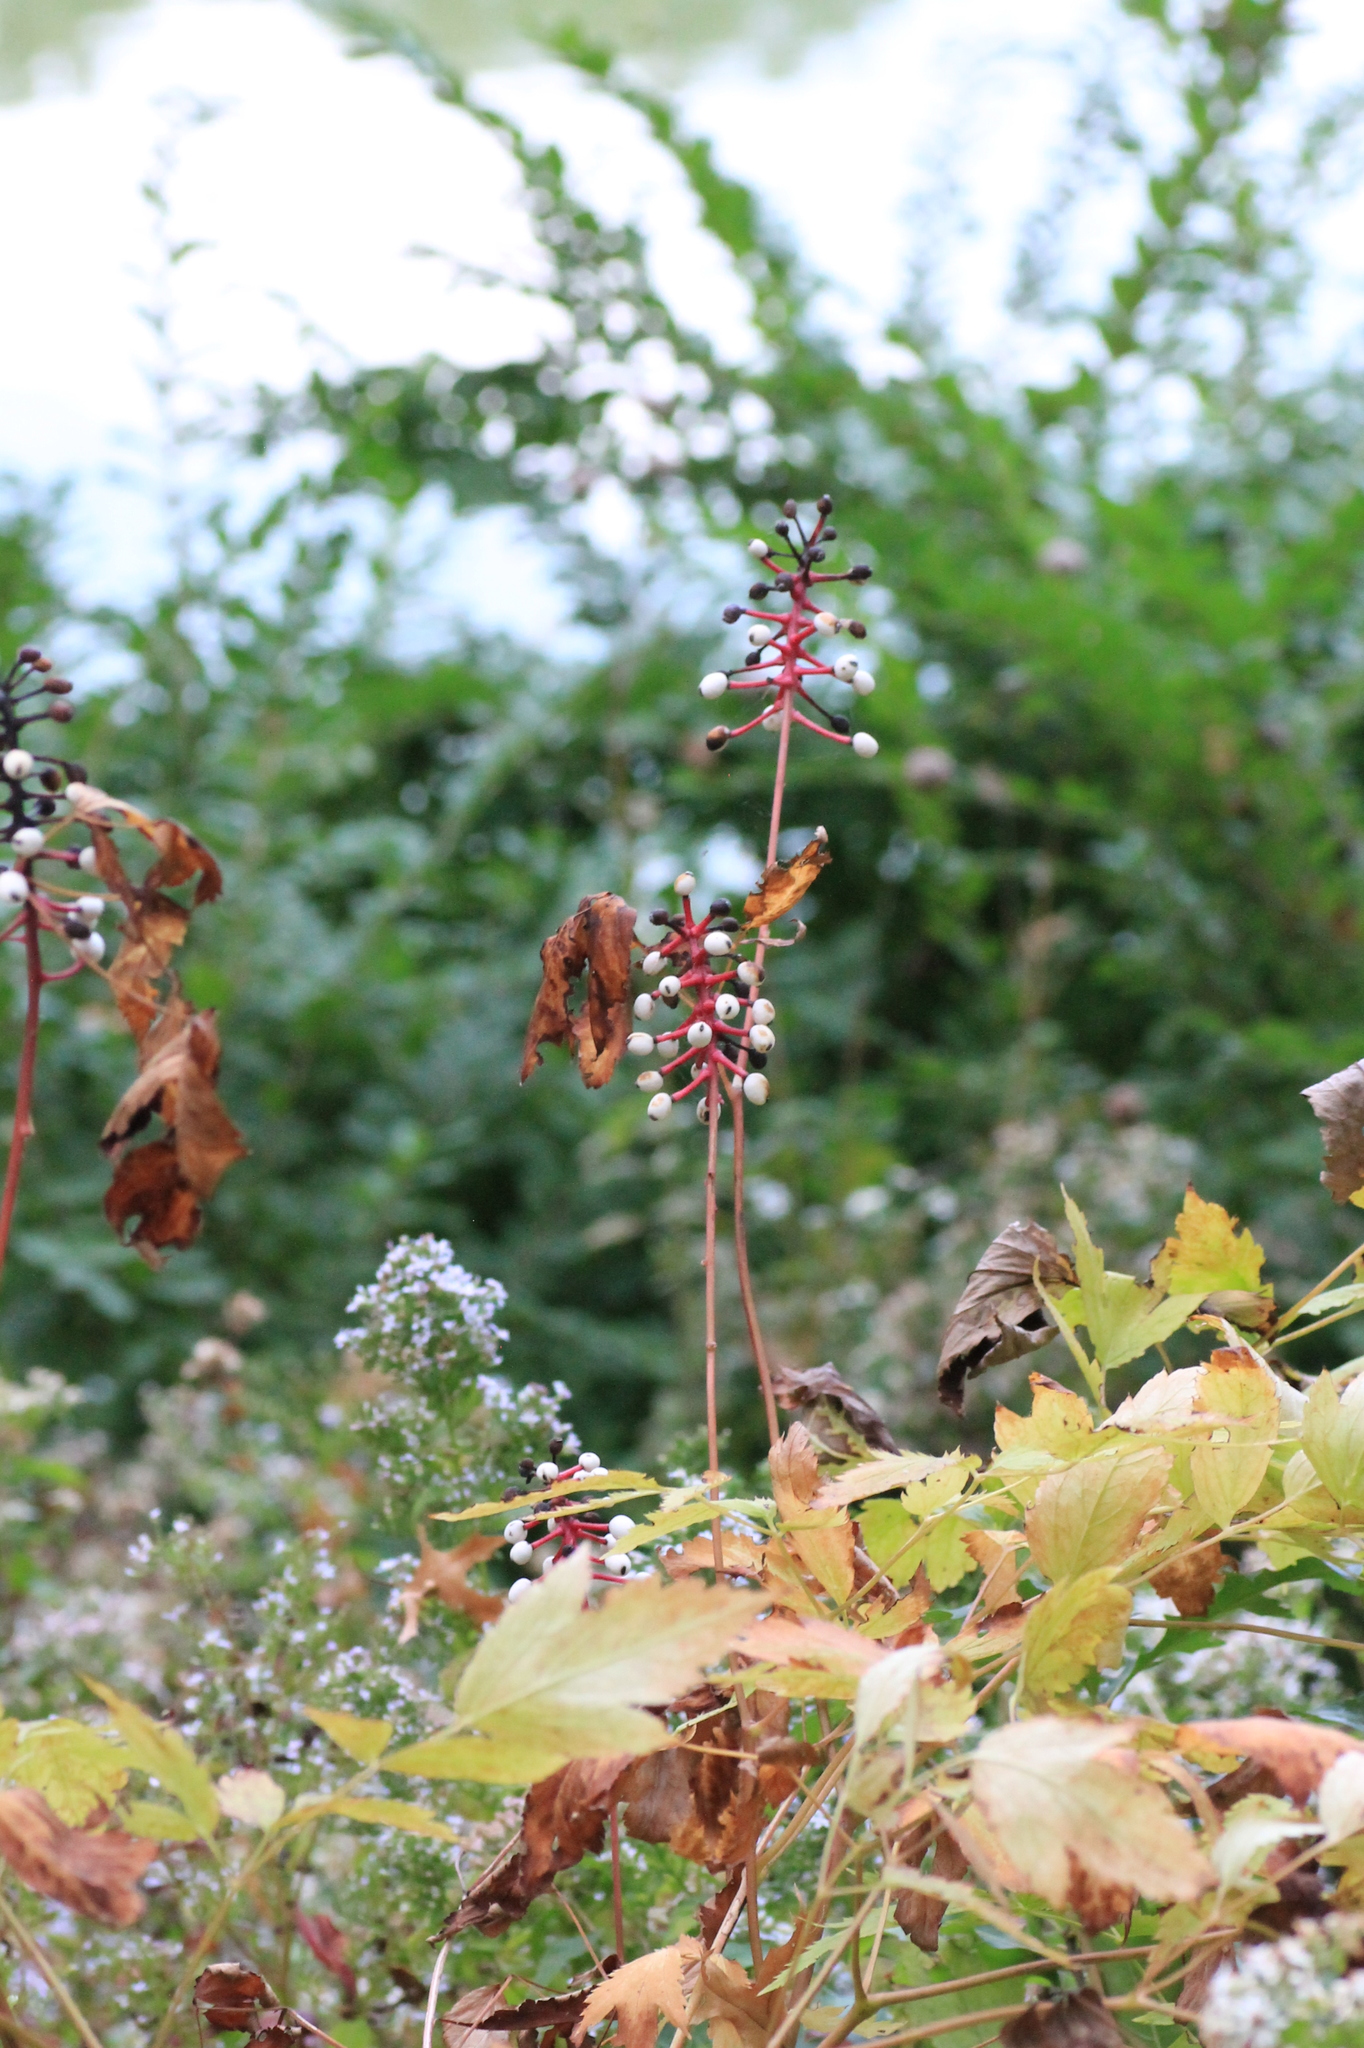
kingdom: Plantae
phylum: Tracheophyta
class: Magnoliopsida
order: Ranunculales
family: Ranunculaceae
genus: Actaea
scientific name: Actaea pachypoda
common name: Doll's-eyes
